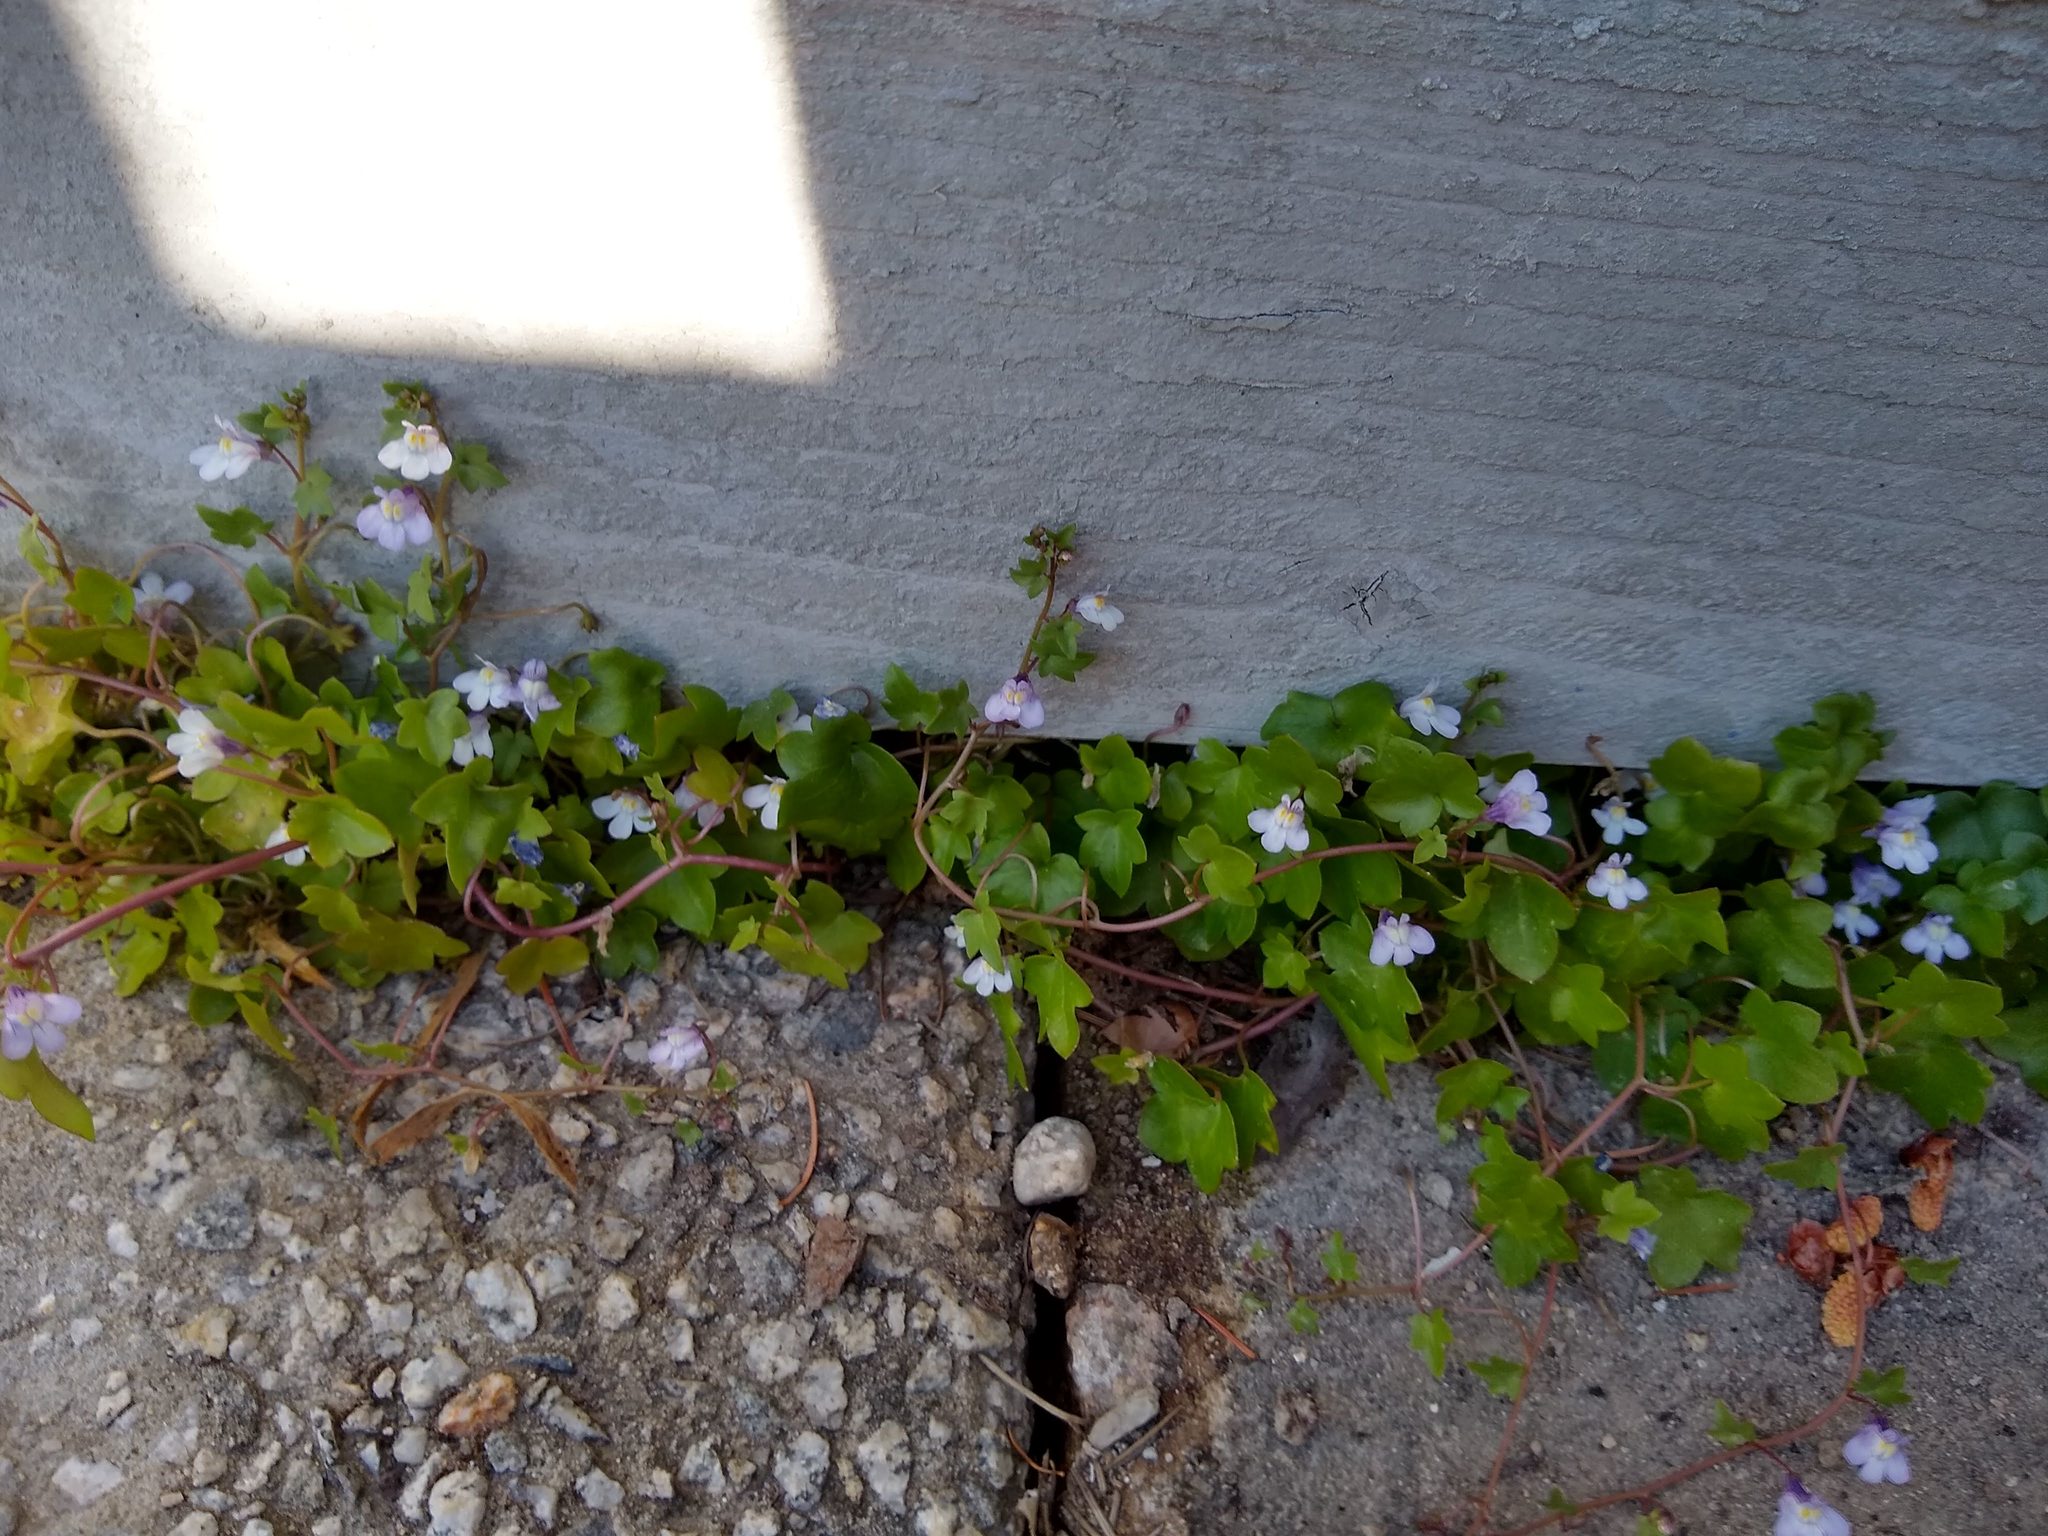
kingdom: Plantae
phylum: Tracheophyta
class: Magnoliopsida
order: Lamiales
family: Plantaginaceae
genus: Cymbalaria
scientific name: Cymbalaria muralis
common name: Ivy-leaved toadflax
